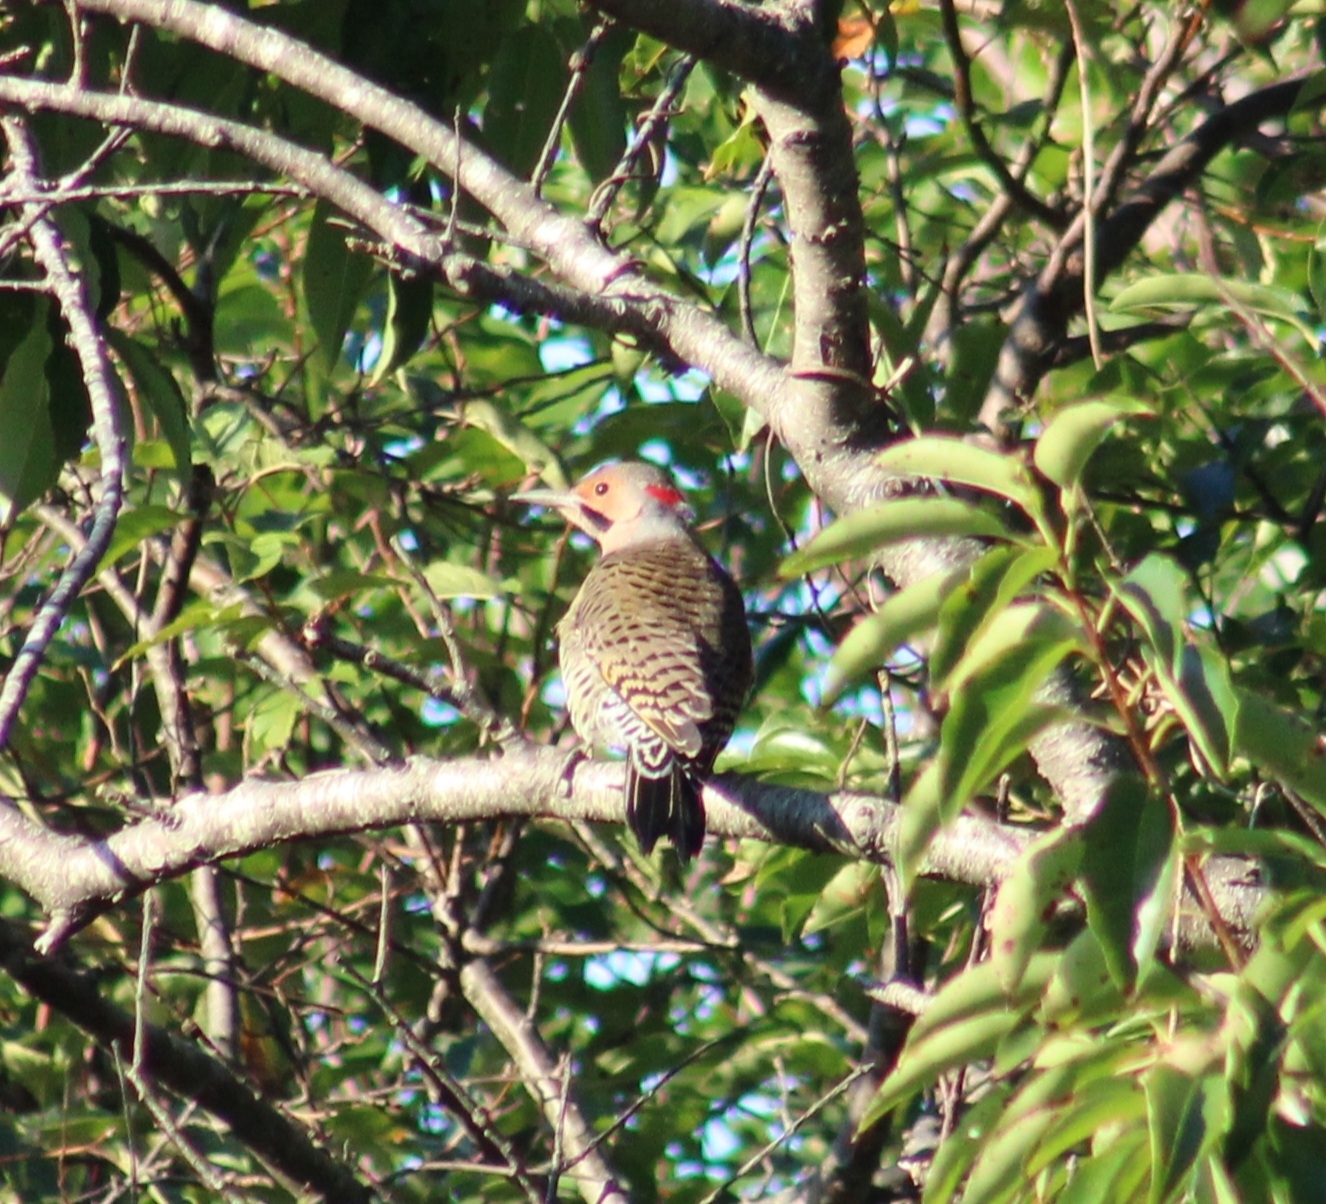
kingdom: Animalia
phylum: Chordata
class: Aves
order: Piciformes
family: Picidae
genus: Colaptes
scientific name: Colaptes auratus
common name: Northern flicker
